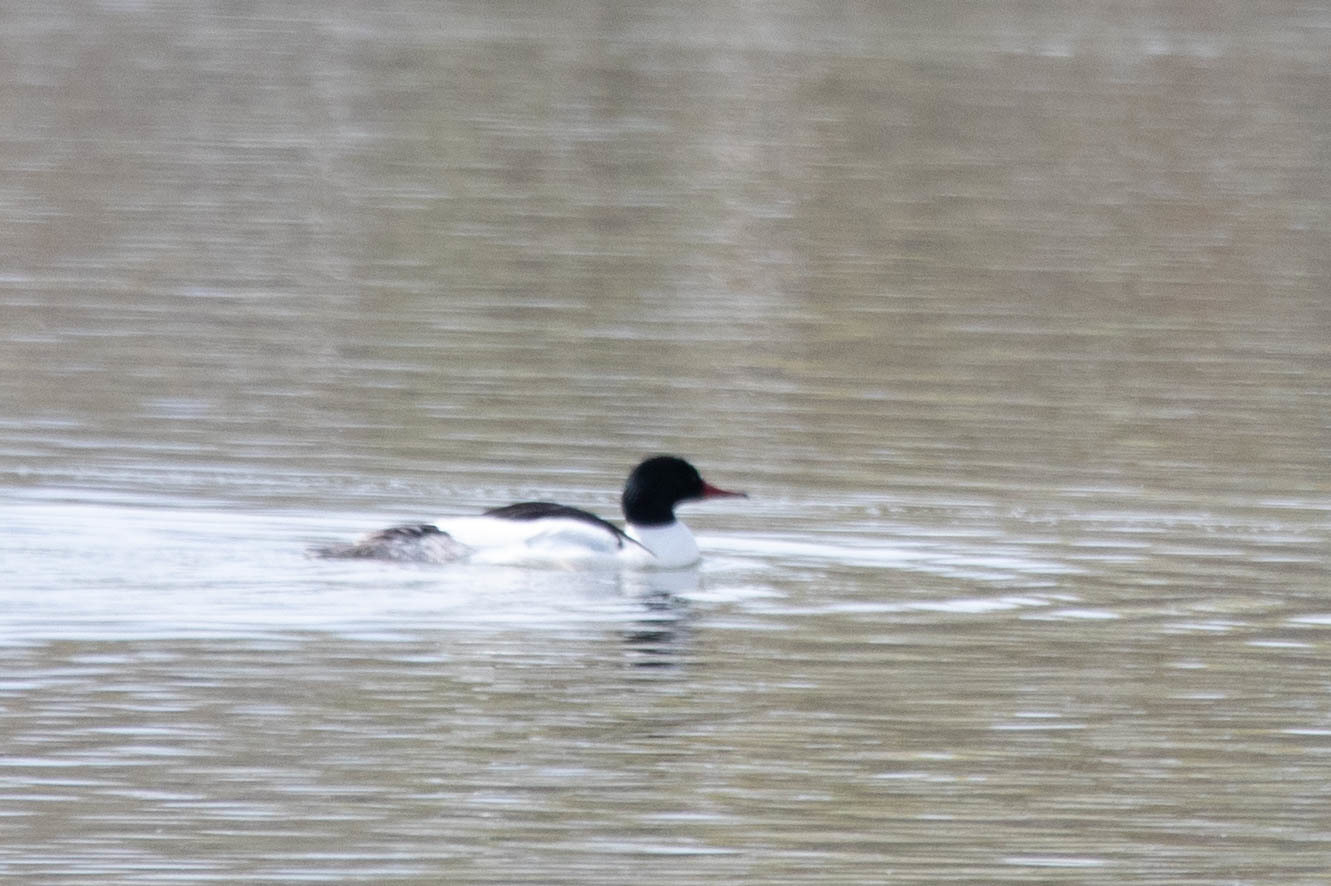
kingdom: Animalia
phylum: Chordata
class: Aves
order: Anseriformes
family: Anatidae
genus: Mergus
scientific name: Mergus merganser
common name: Common merganser
